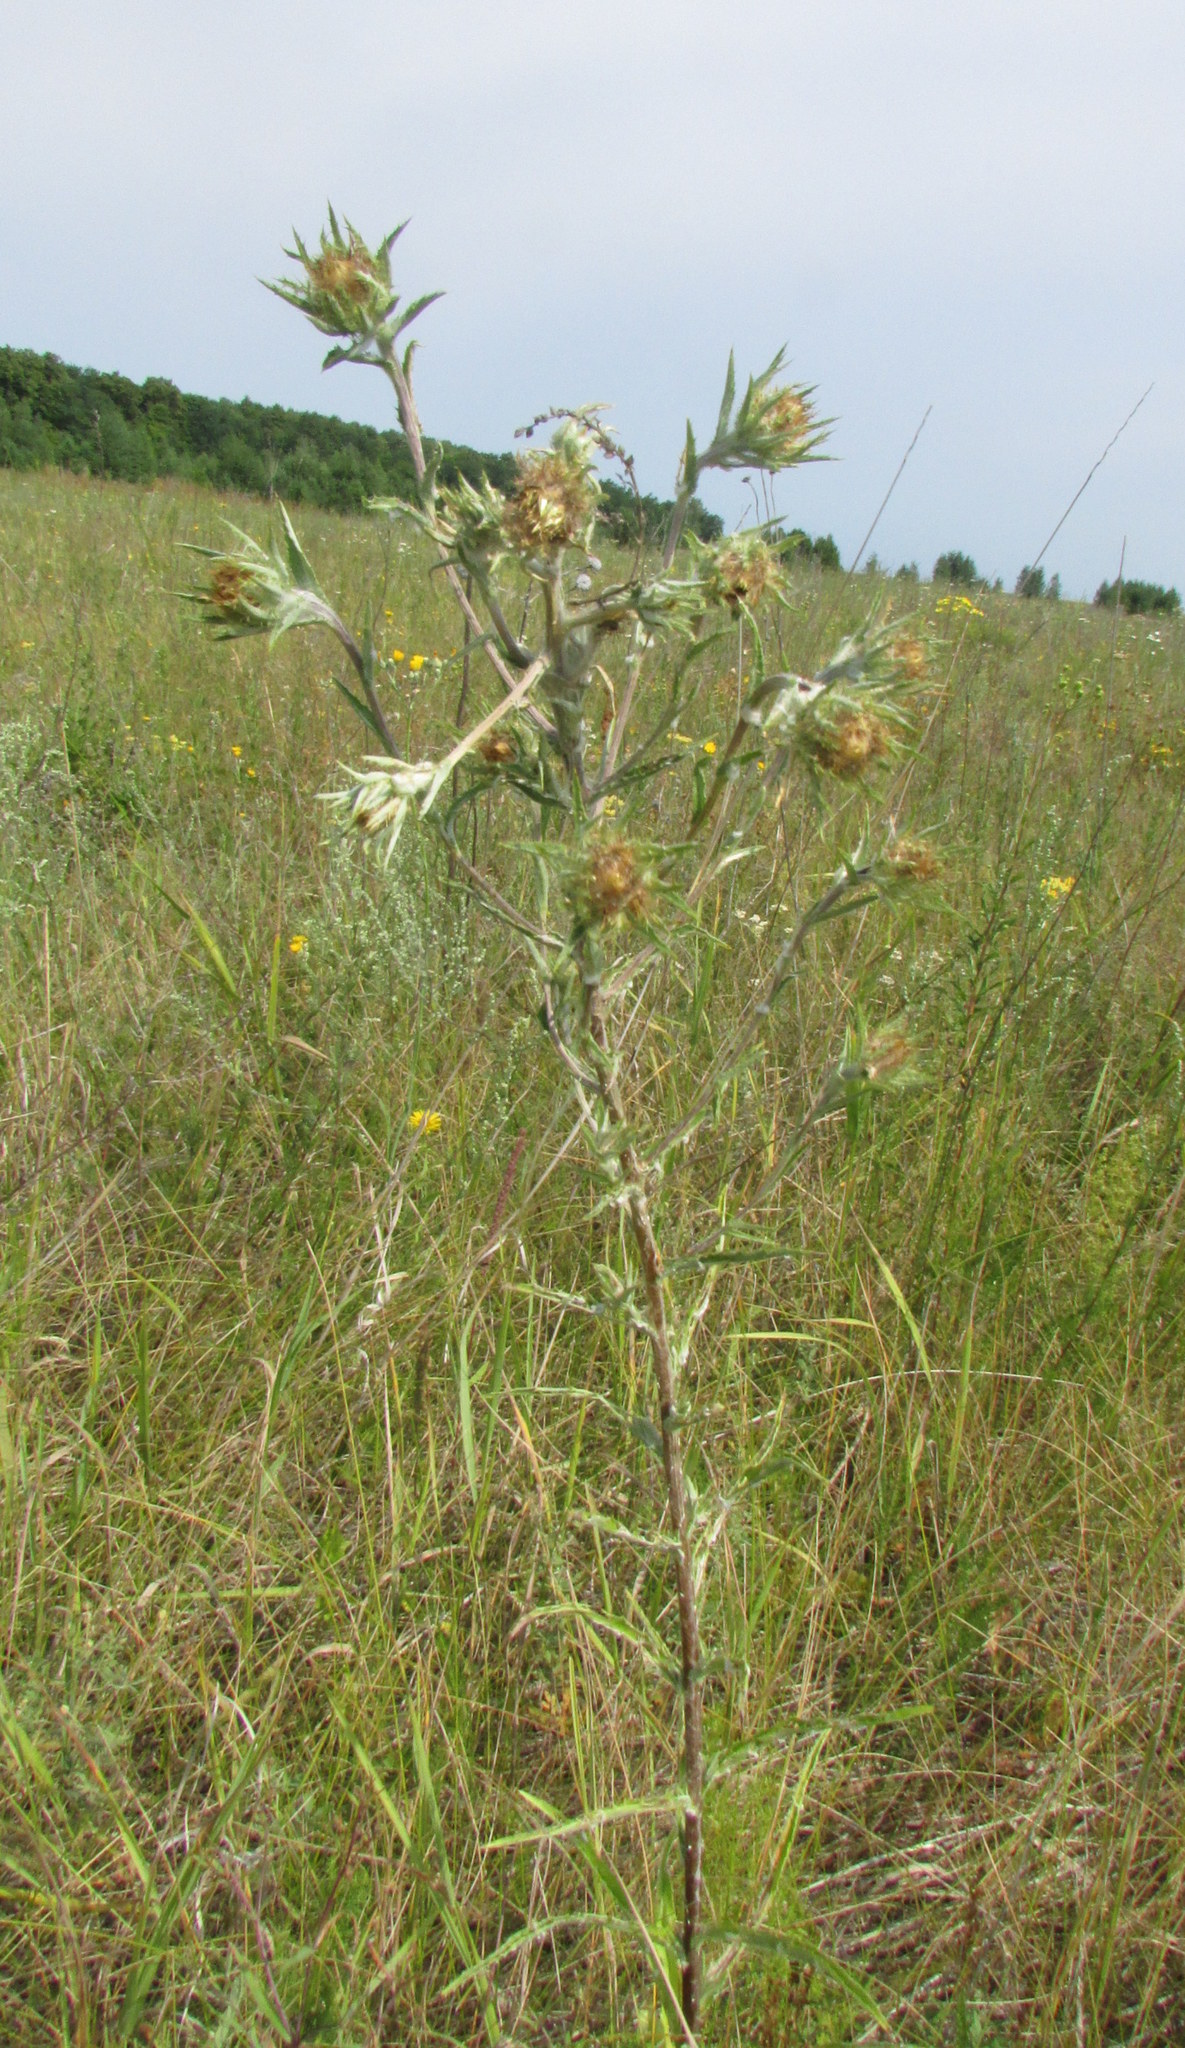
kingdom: Plantae
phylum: Tracheophyta
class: Magnoliopsida
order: Asterales
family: Asteraceae
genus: Carlina
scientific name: Carlina biebersteinii
